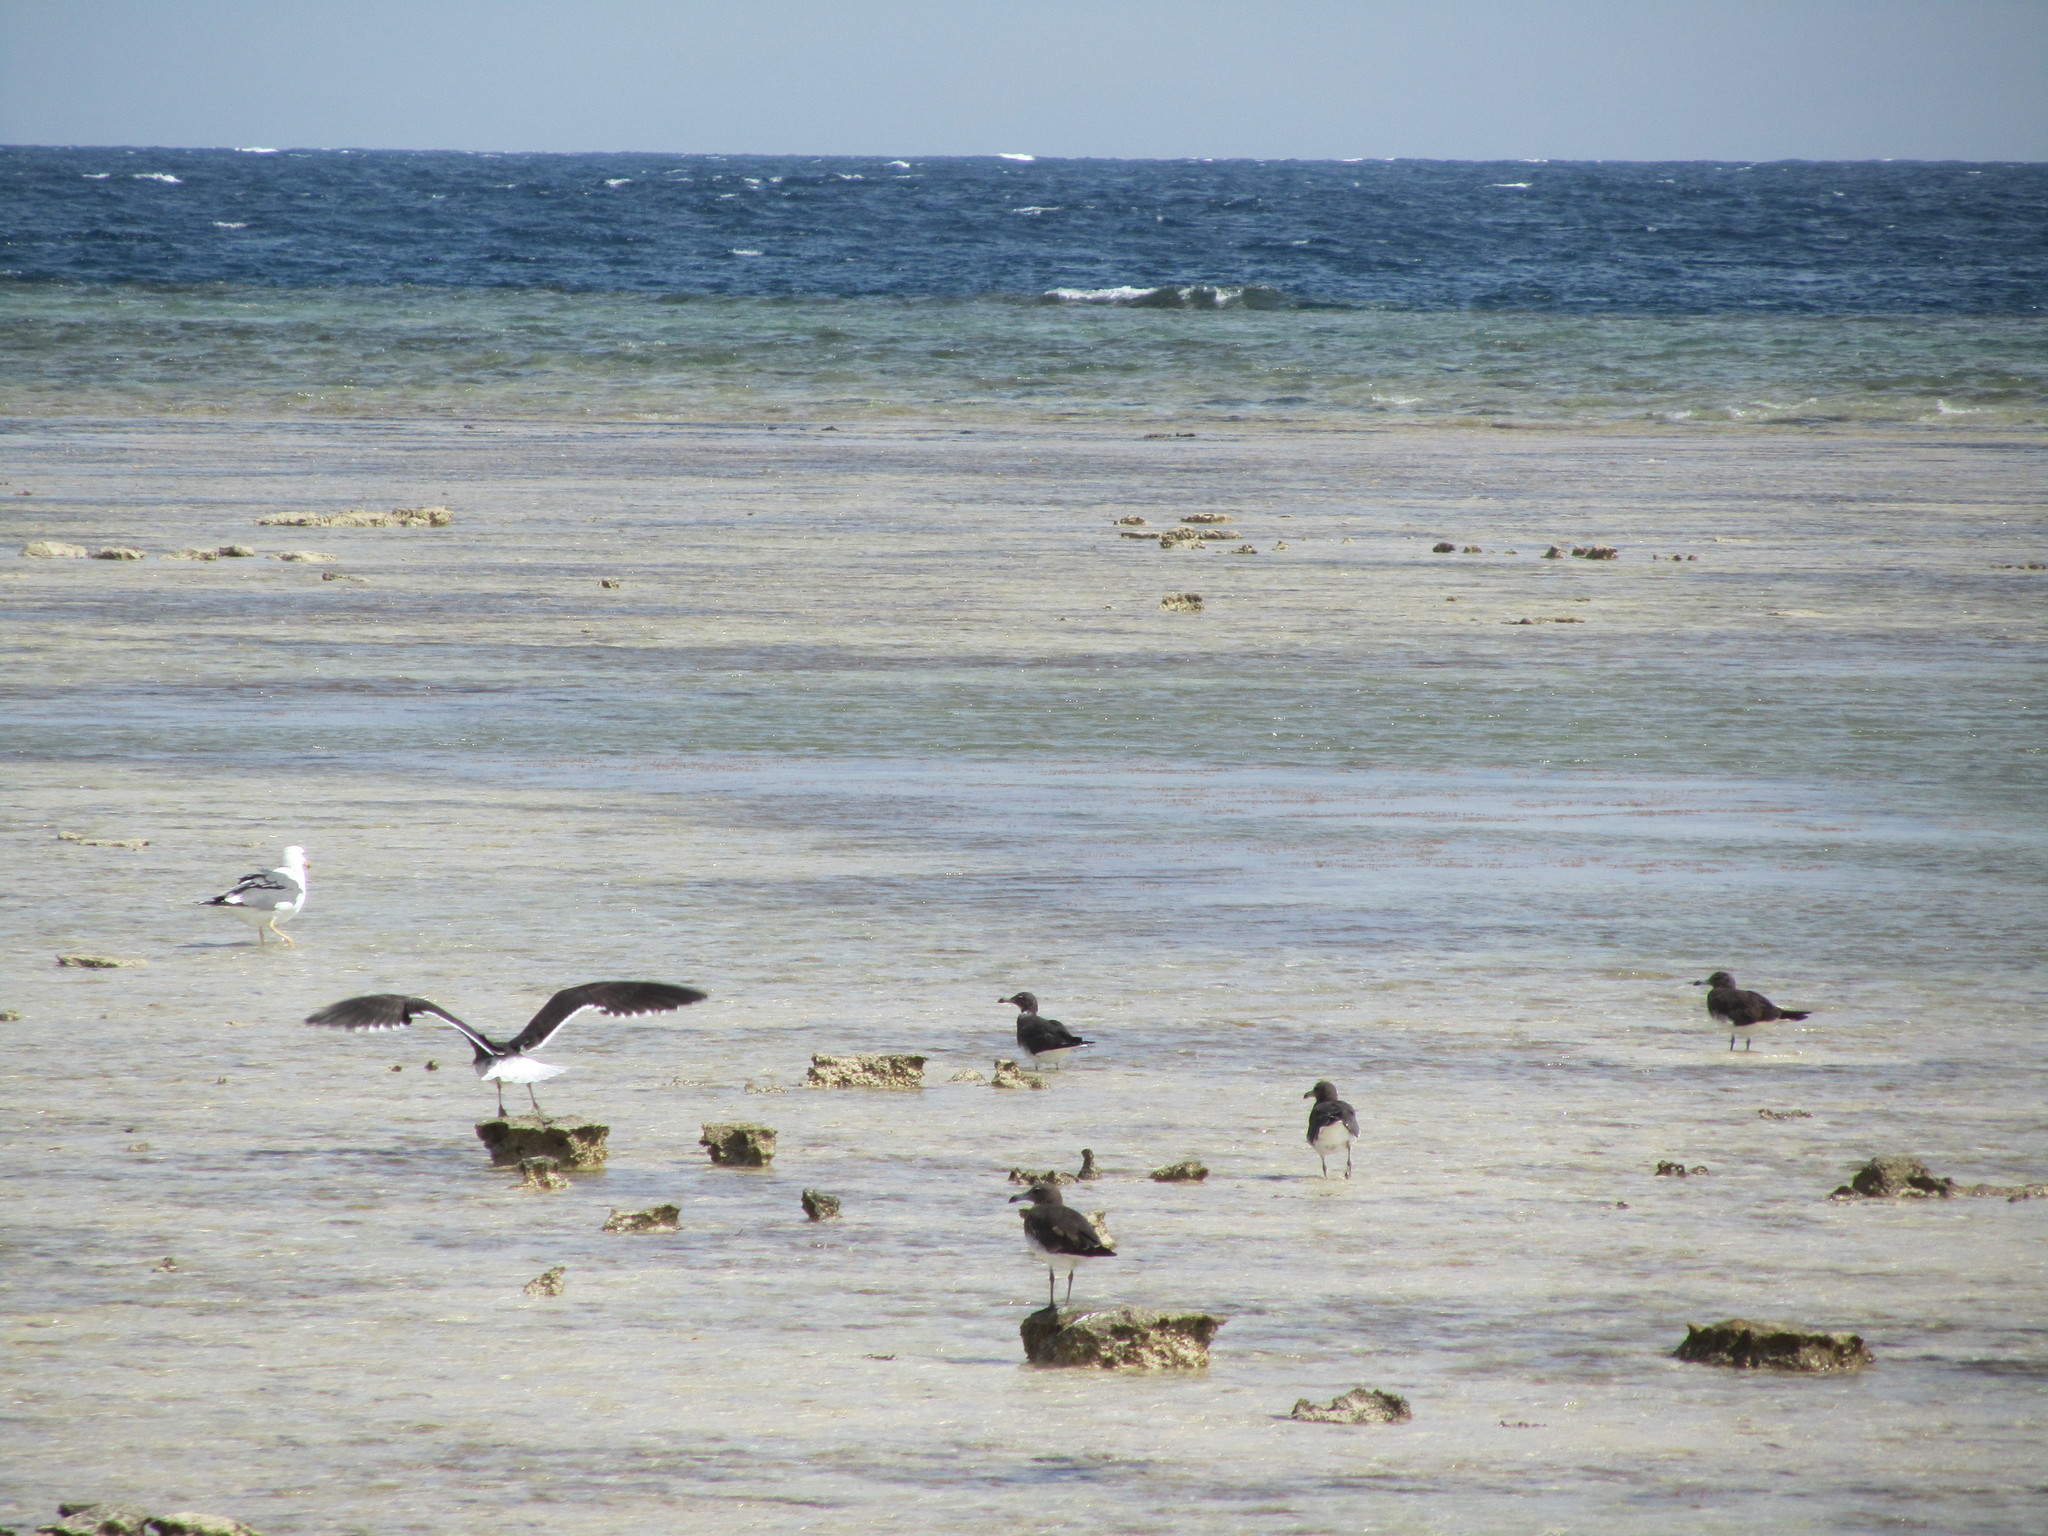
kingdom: Animalia
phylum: Chordata
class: Aves
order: Charadriiformes
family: Laridae
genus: Ichthyaetus
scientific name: Ichthyaetus hemprichii
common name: Sooty gull
